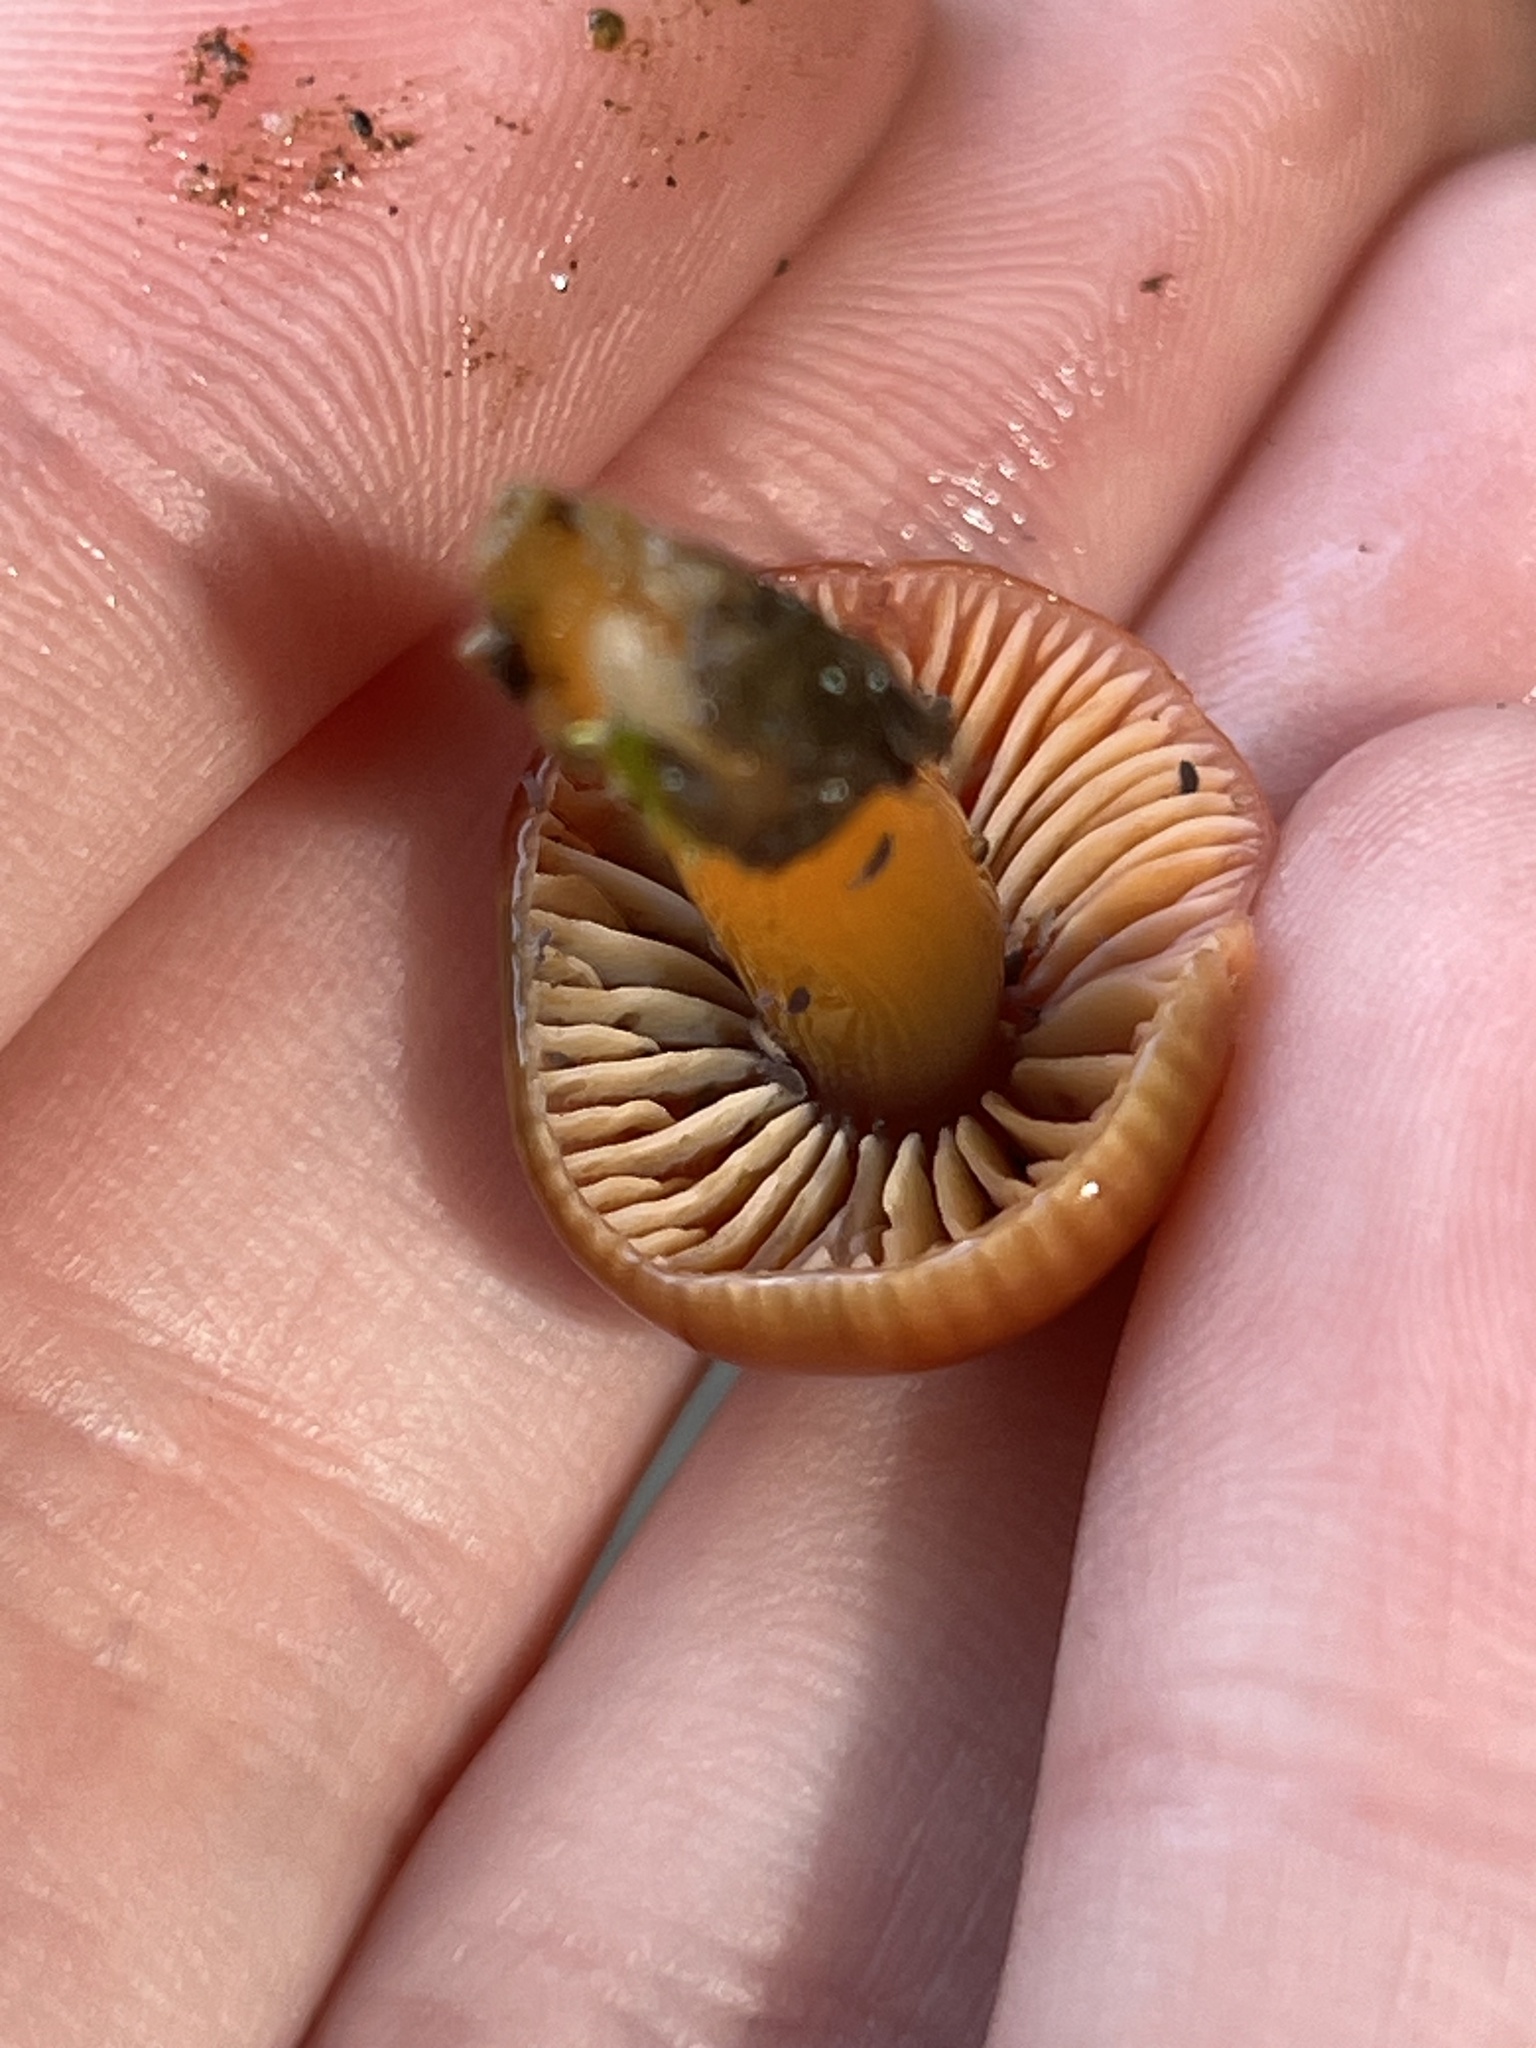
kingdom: Fungi
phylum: Basidiomycota
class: Agaricomycetes
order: Agaricales
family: Hygrophoraceae
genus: Gliophorus
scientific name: Gliophorus psittacinus
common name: Parrot wax-cap
